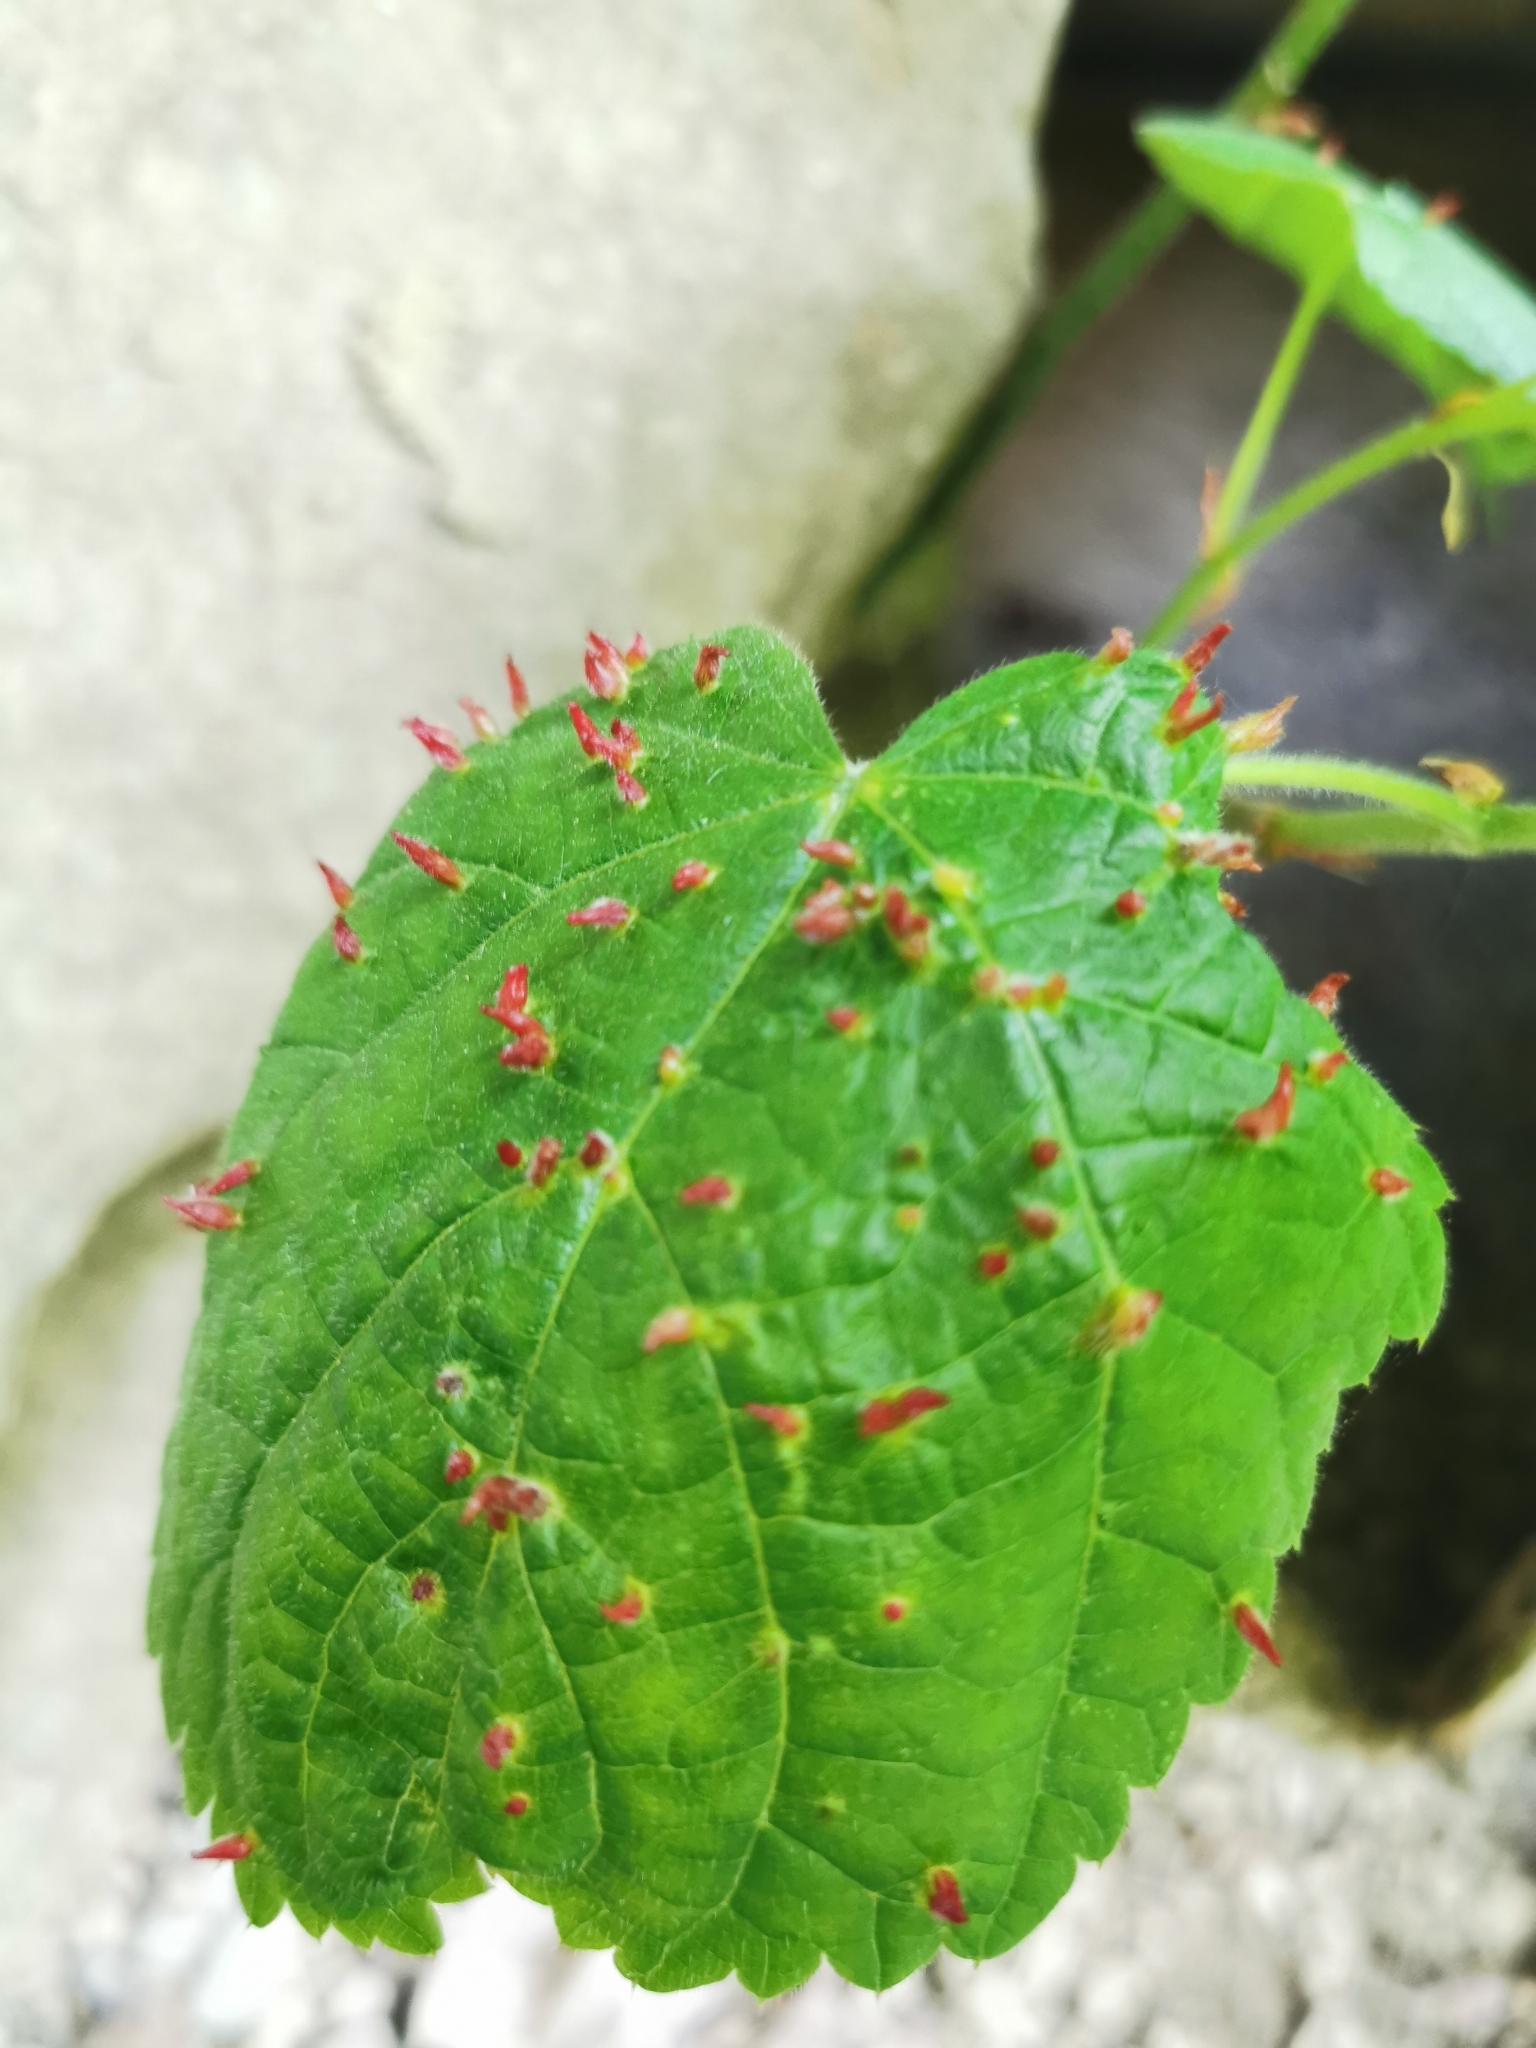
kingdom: Animalia
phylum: Arthropoda
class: Arachnida
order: Trombidiformes
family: Eriophyidae
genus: Eriophyes
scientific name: Eriophyes tiliae
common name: Red nail gall mite
